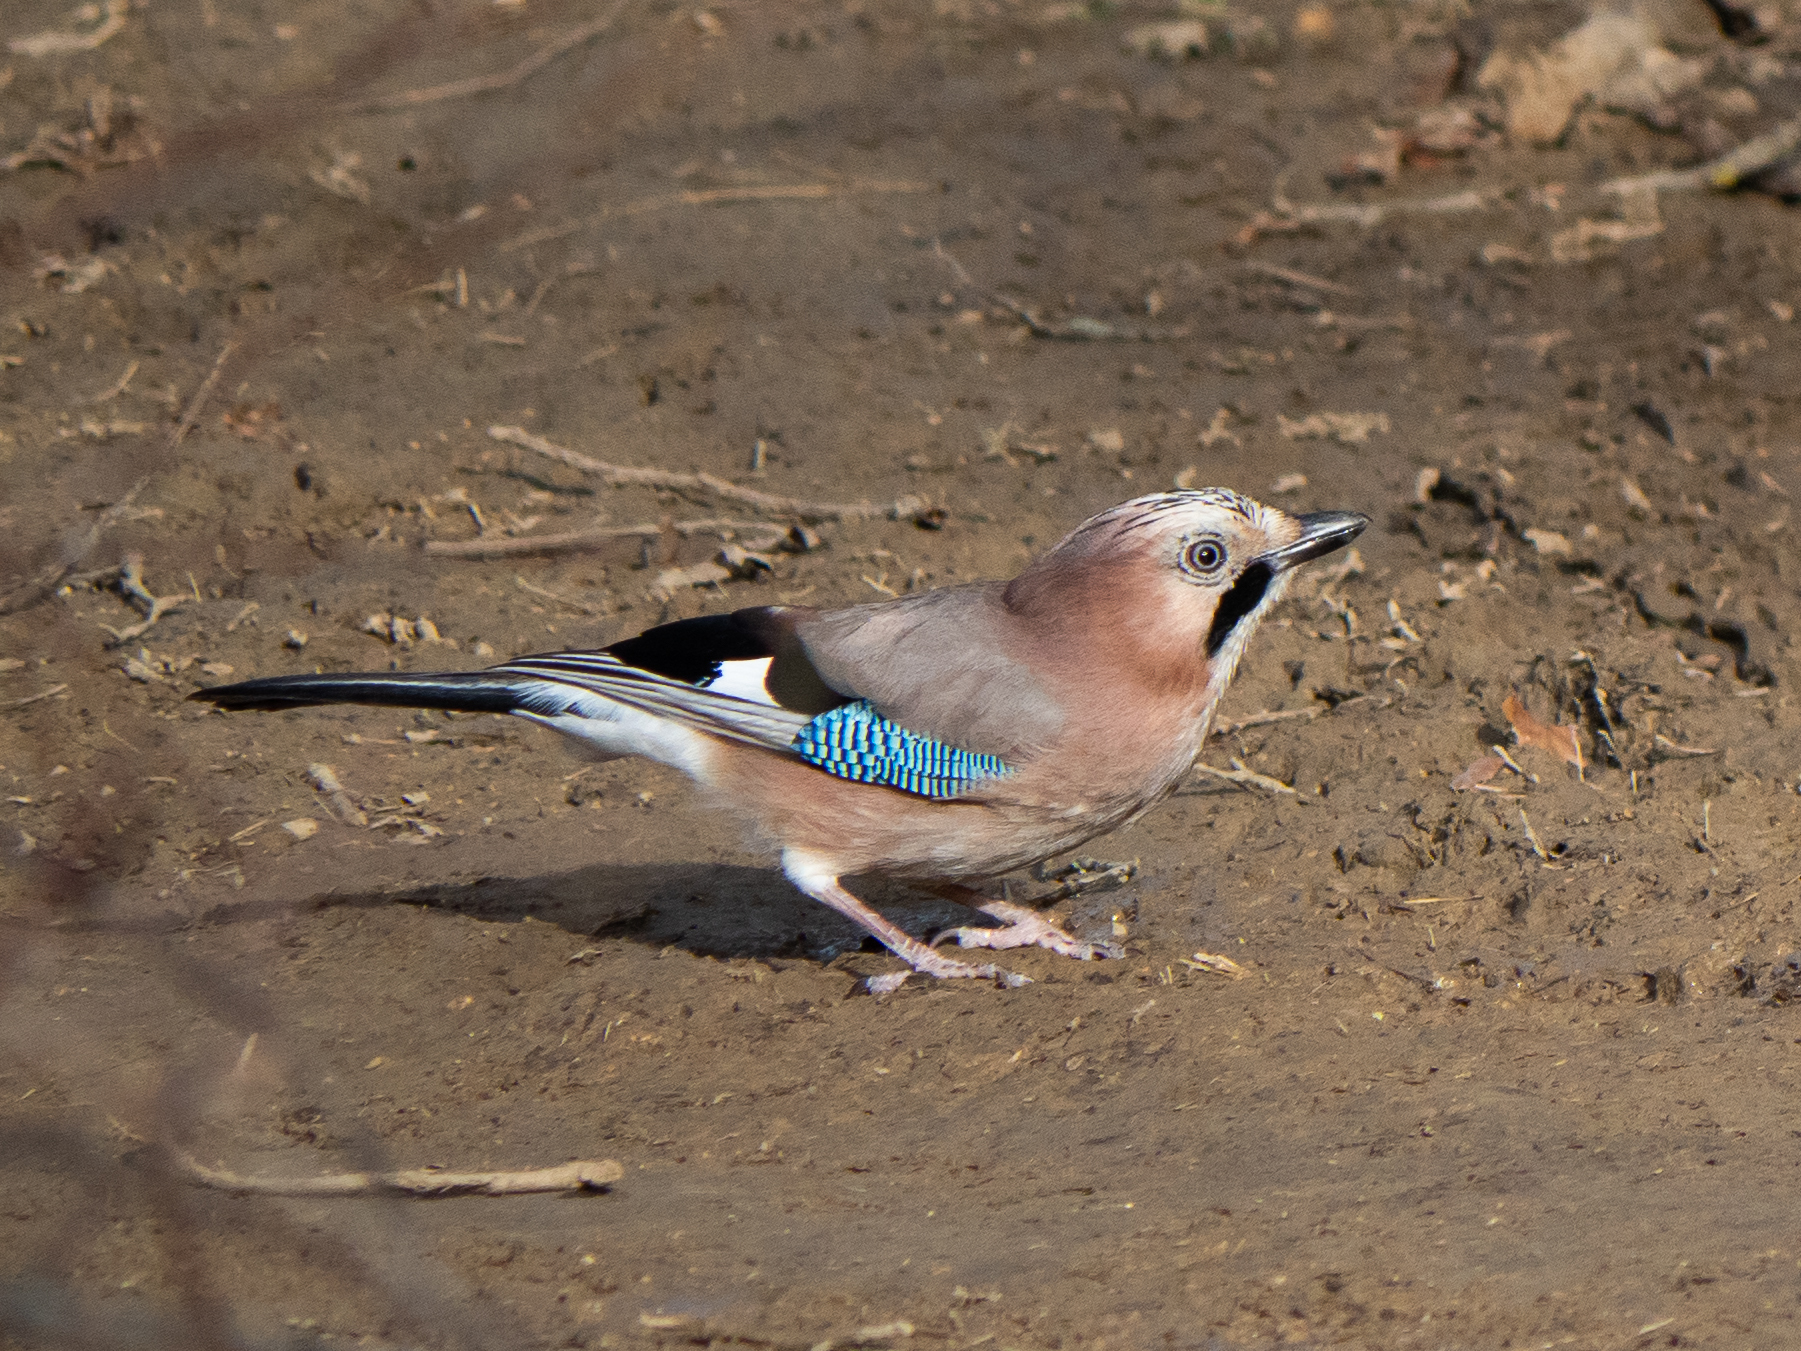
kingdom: Animalia
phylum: Chordata
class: Aves
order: Passeriformes
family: Corvidae
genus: Garrulus
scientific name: Garrulus glandarius
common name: Eurasian jay
